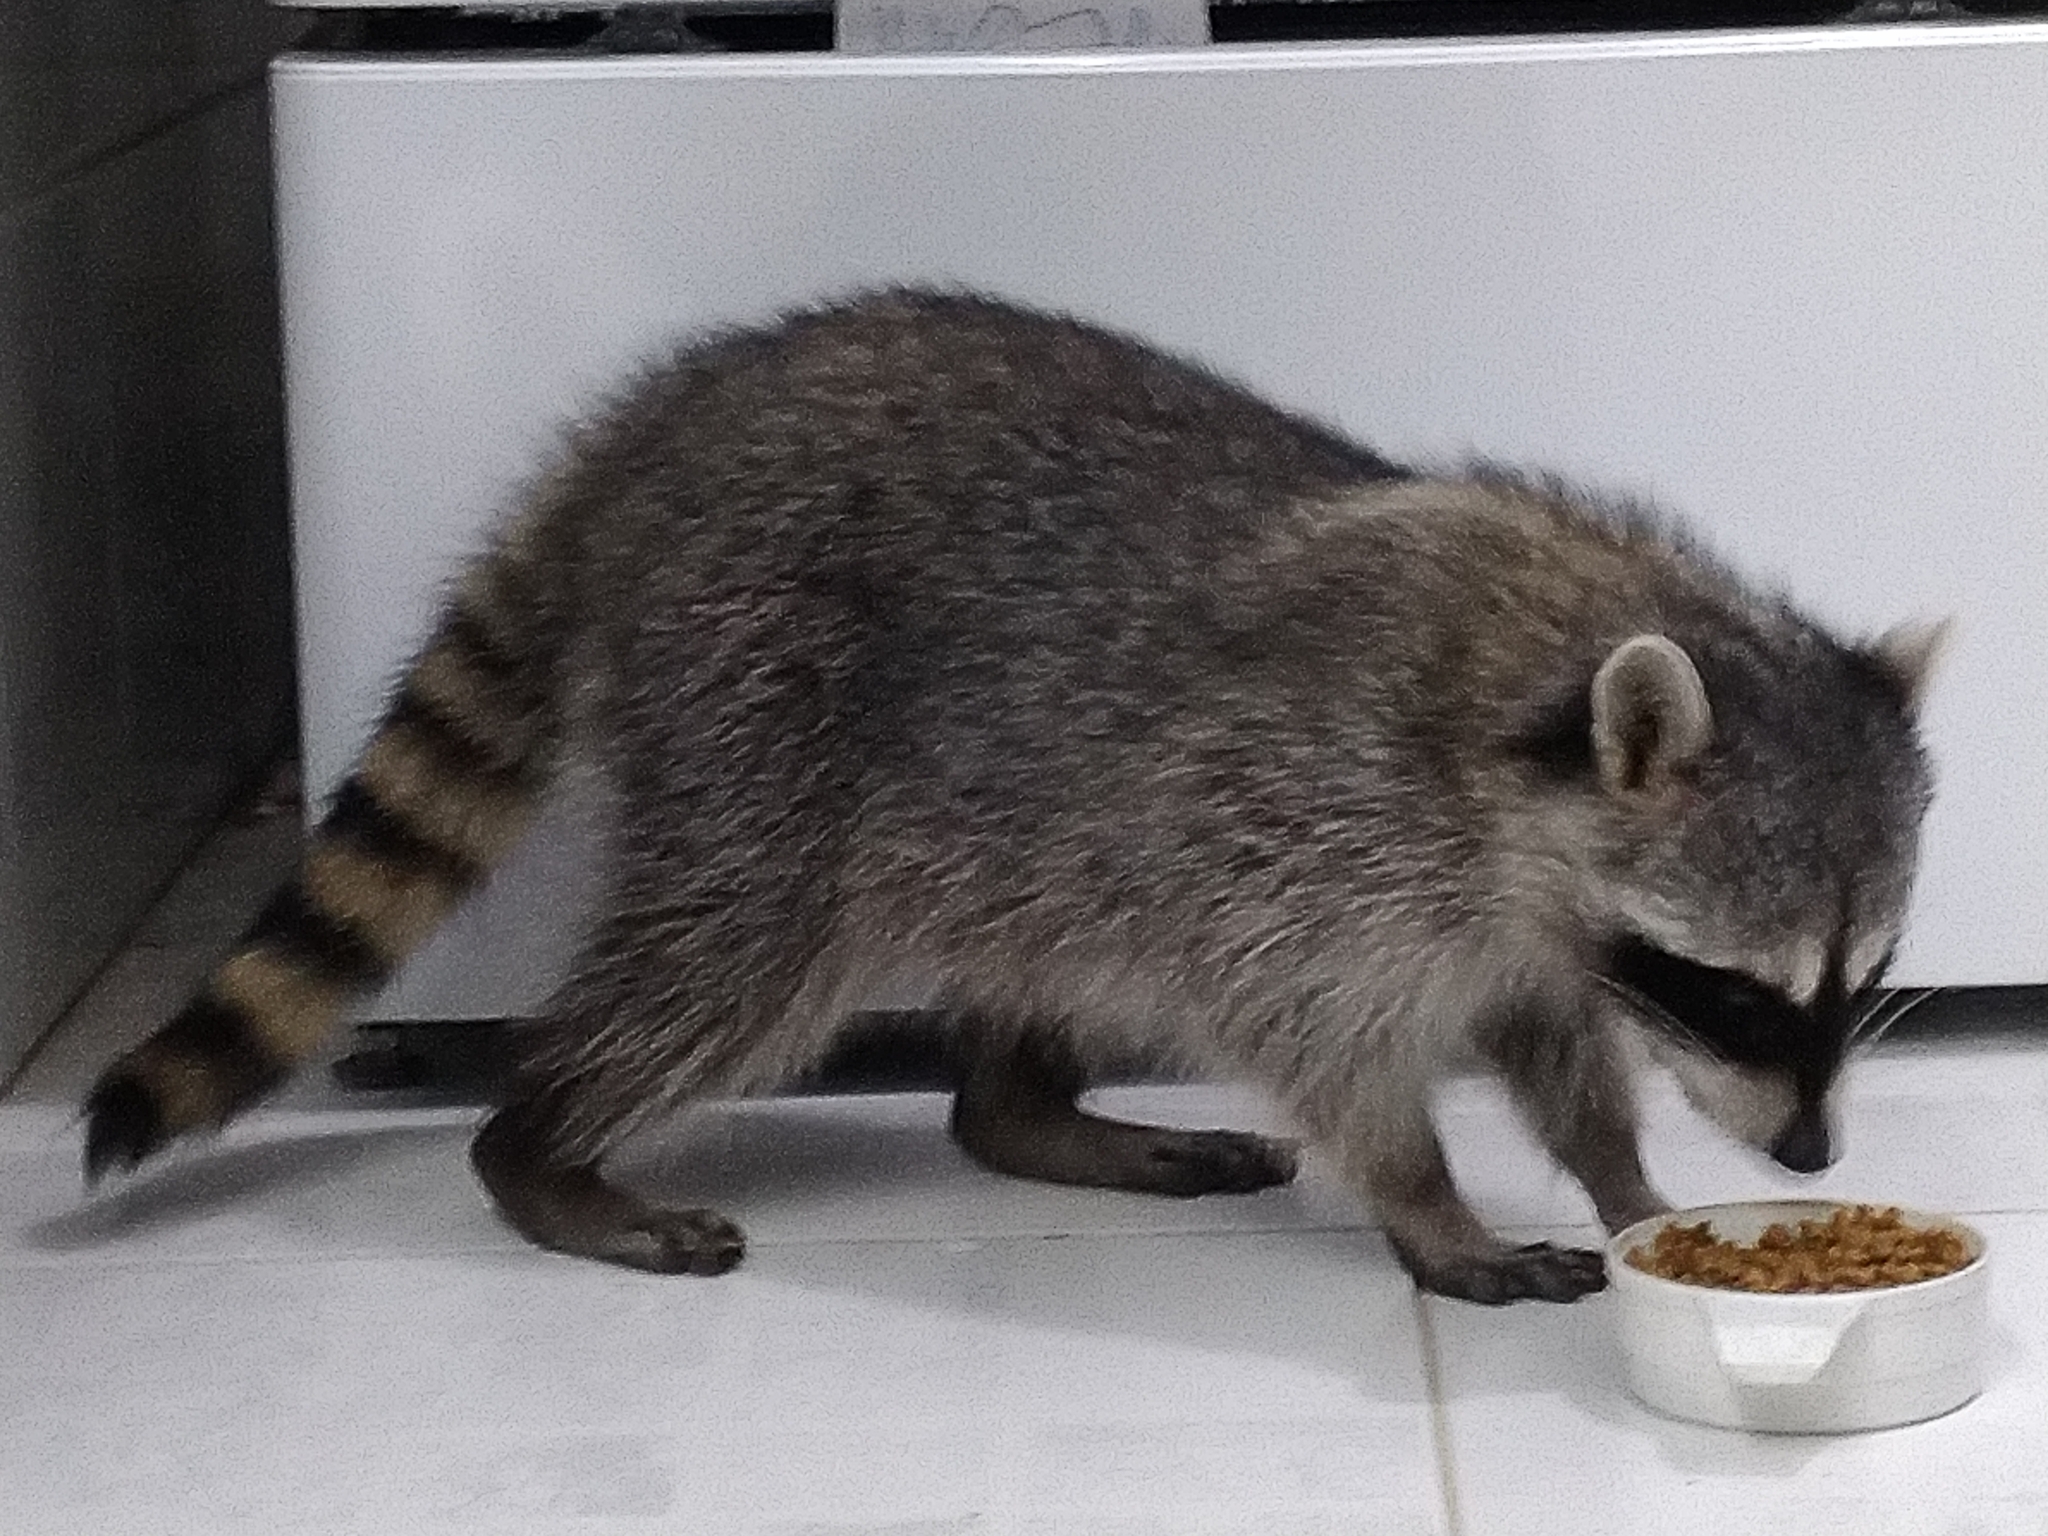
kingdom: Animalia
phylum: Chordata
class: Mammalia
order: Carnivora
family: Procyonidae
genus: Procyon
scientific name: Procyon lotor
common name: Raccoon
